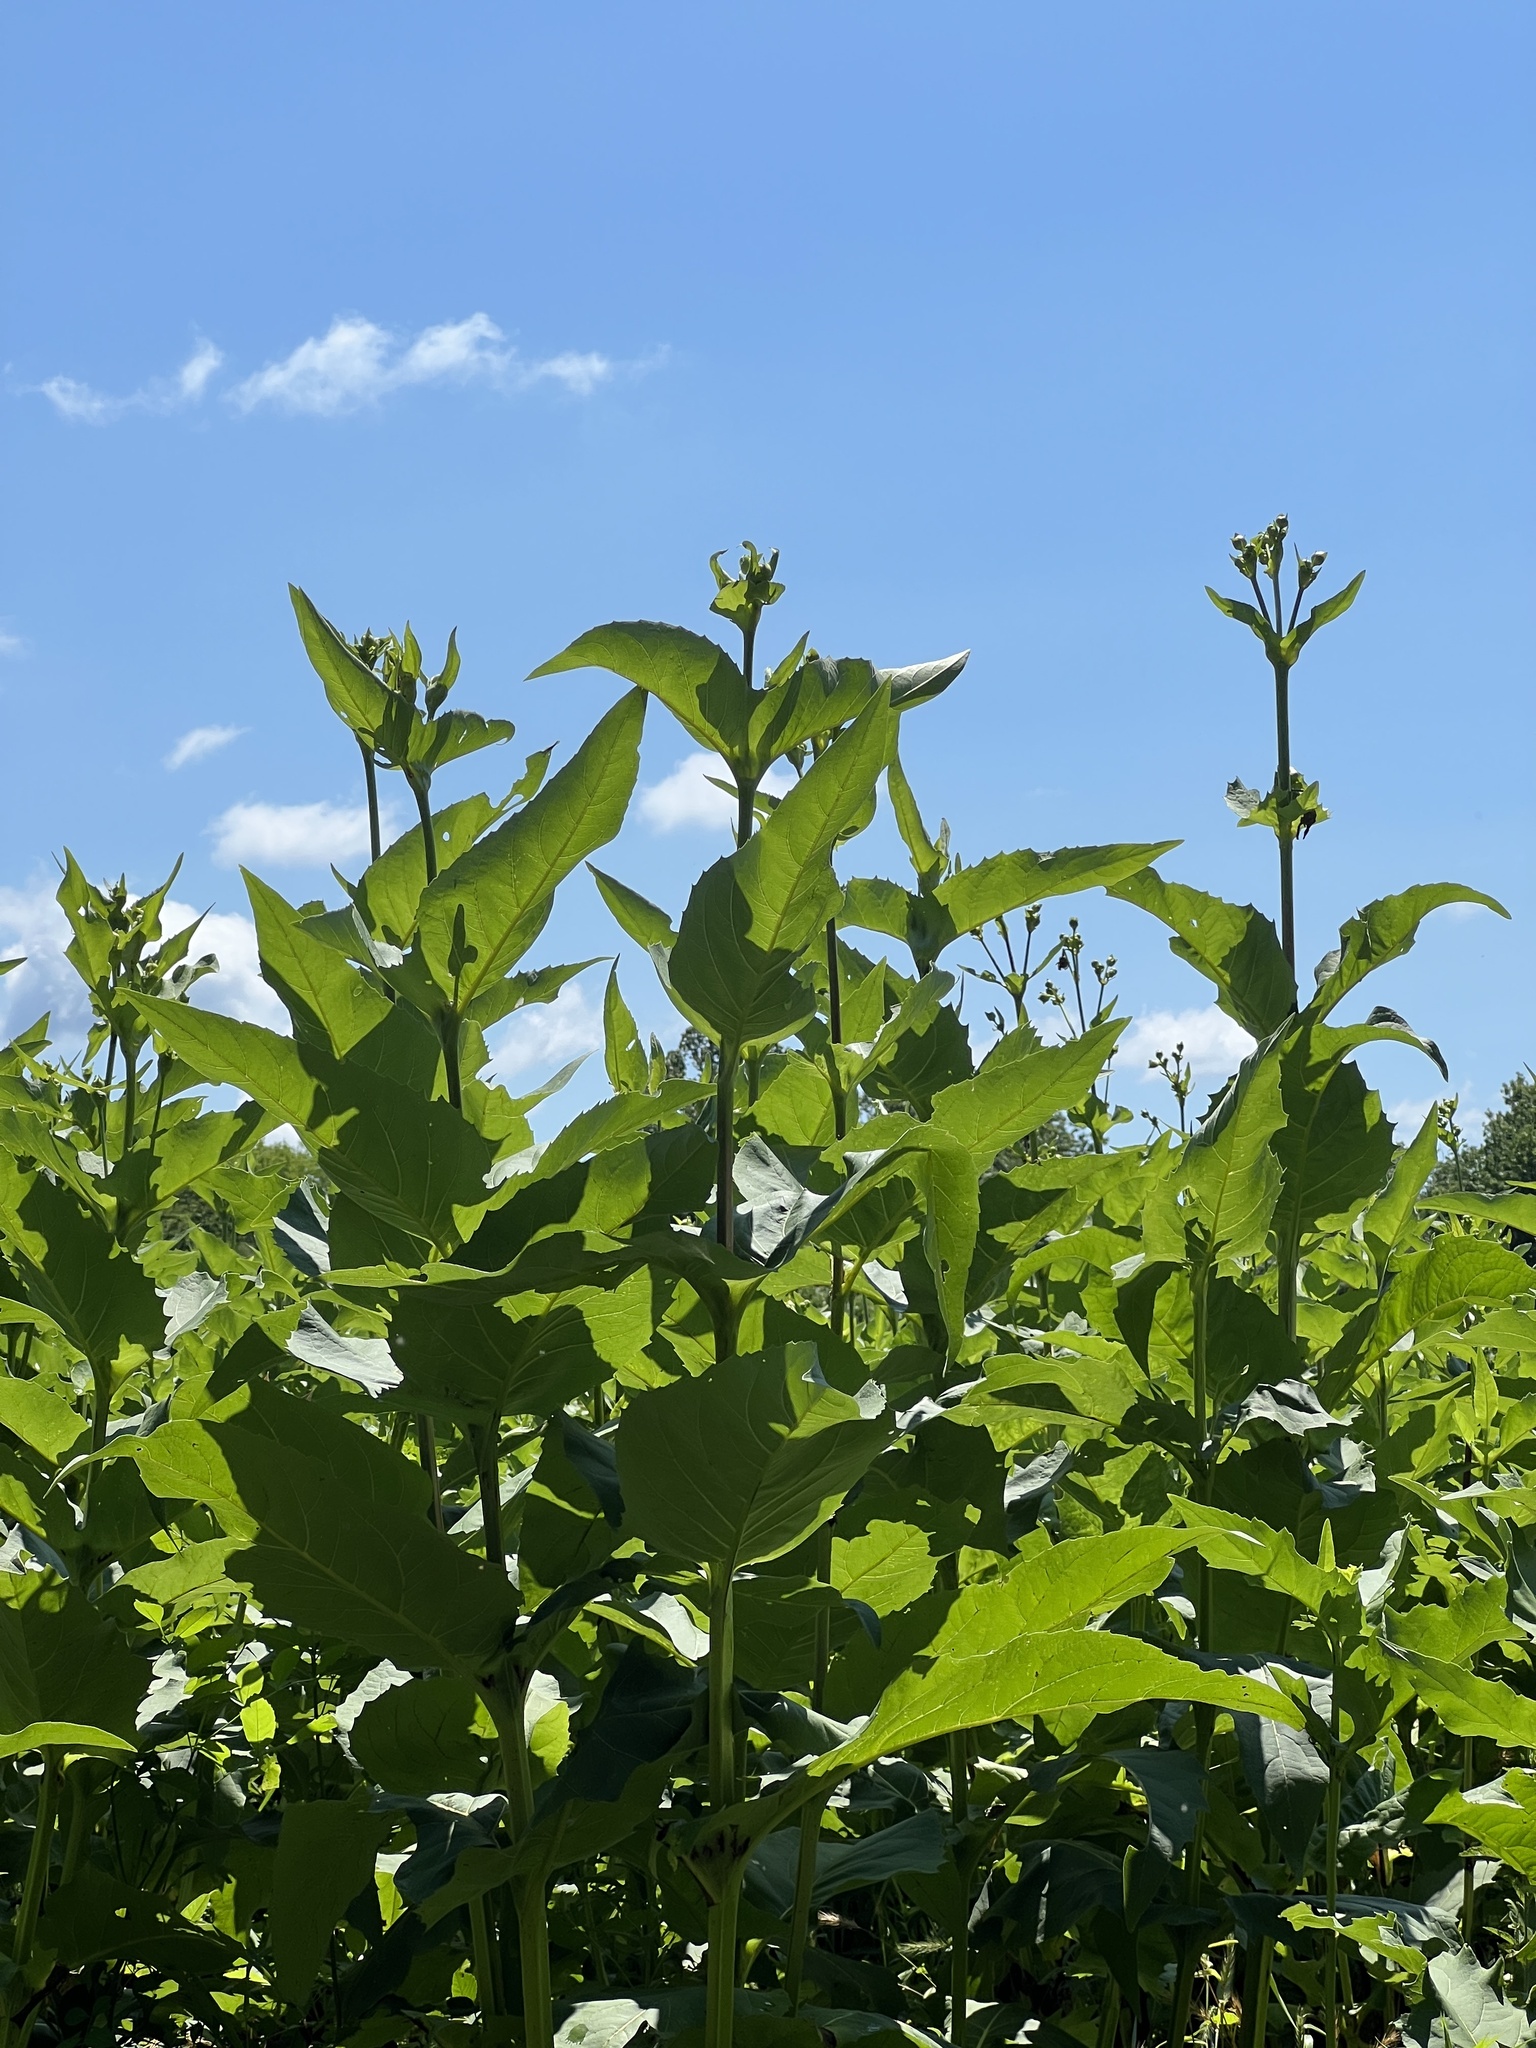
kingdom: Plantae
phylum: Tracheophyta
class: Magnoliopsida
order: Asterales
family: Asteraceae
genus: Silphium
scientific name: Silphium perfoliatum
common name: Cup-plant
